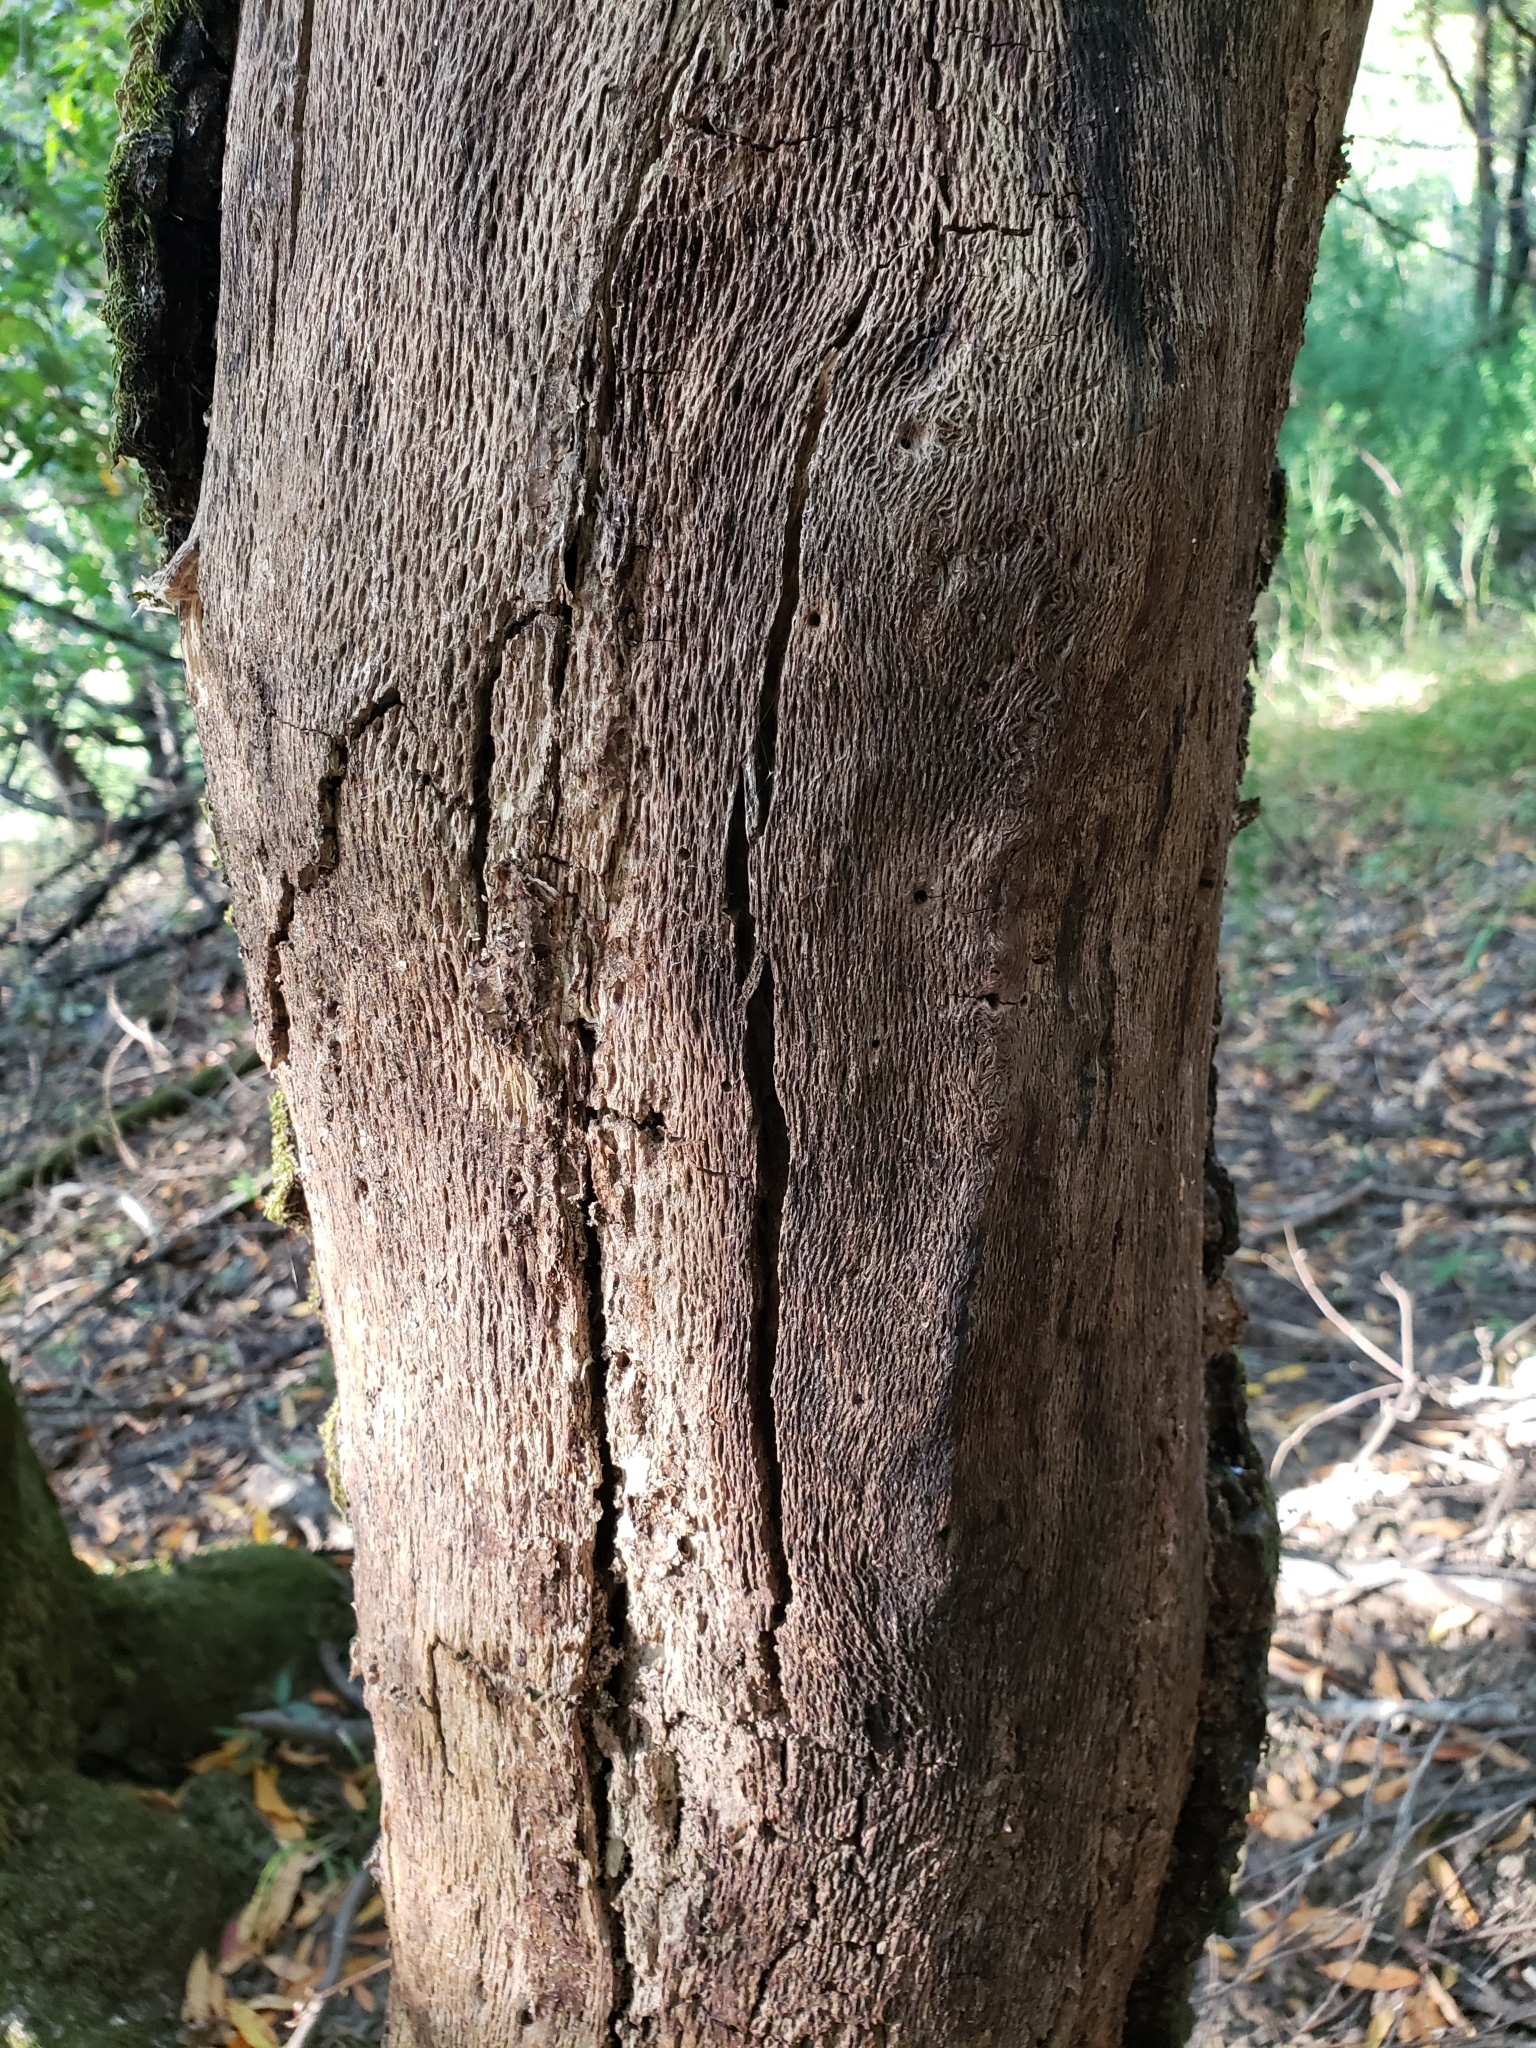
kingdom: Plantae
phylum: Tracheophyta
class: Magnoliopsida
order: Fagales
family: Fagaceae
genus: Quercus
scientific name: Quercus kelloggii
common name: California black oak
